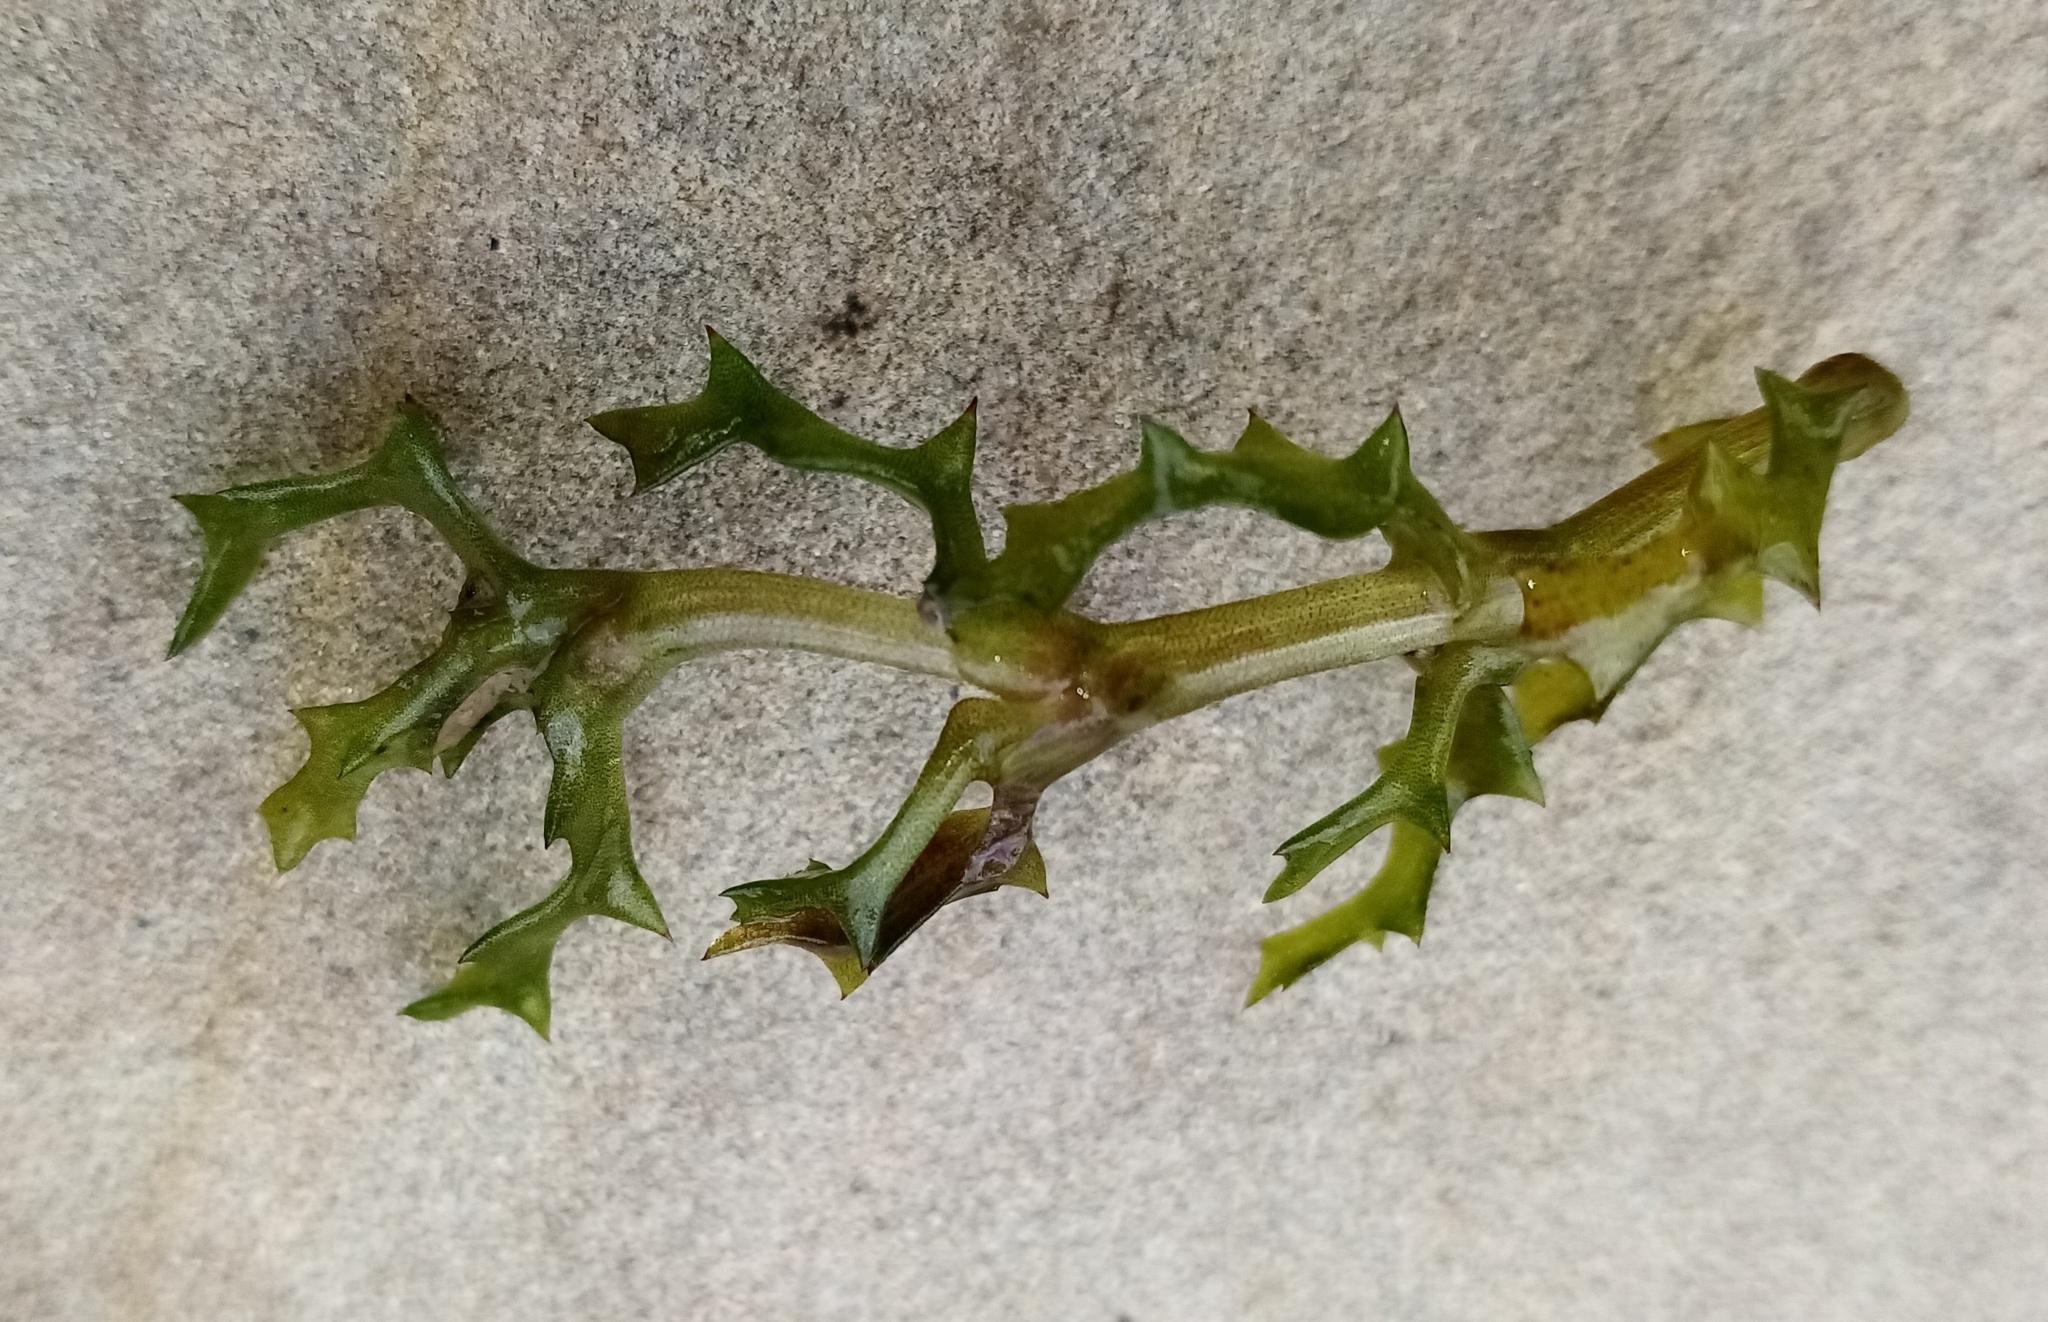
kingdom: Plantae
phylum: Tracheophyta
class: Liliopsida
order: Alismatales
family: Hydrocharitaceae
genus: Najas
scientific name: Najas marina
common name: Holly-leaved naiad
